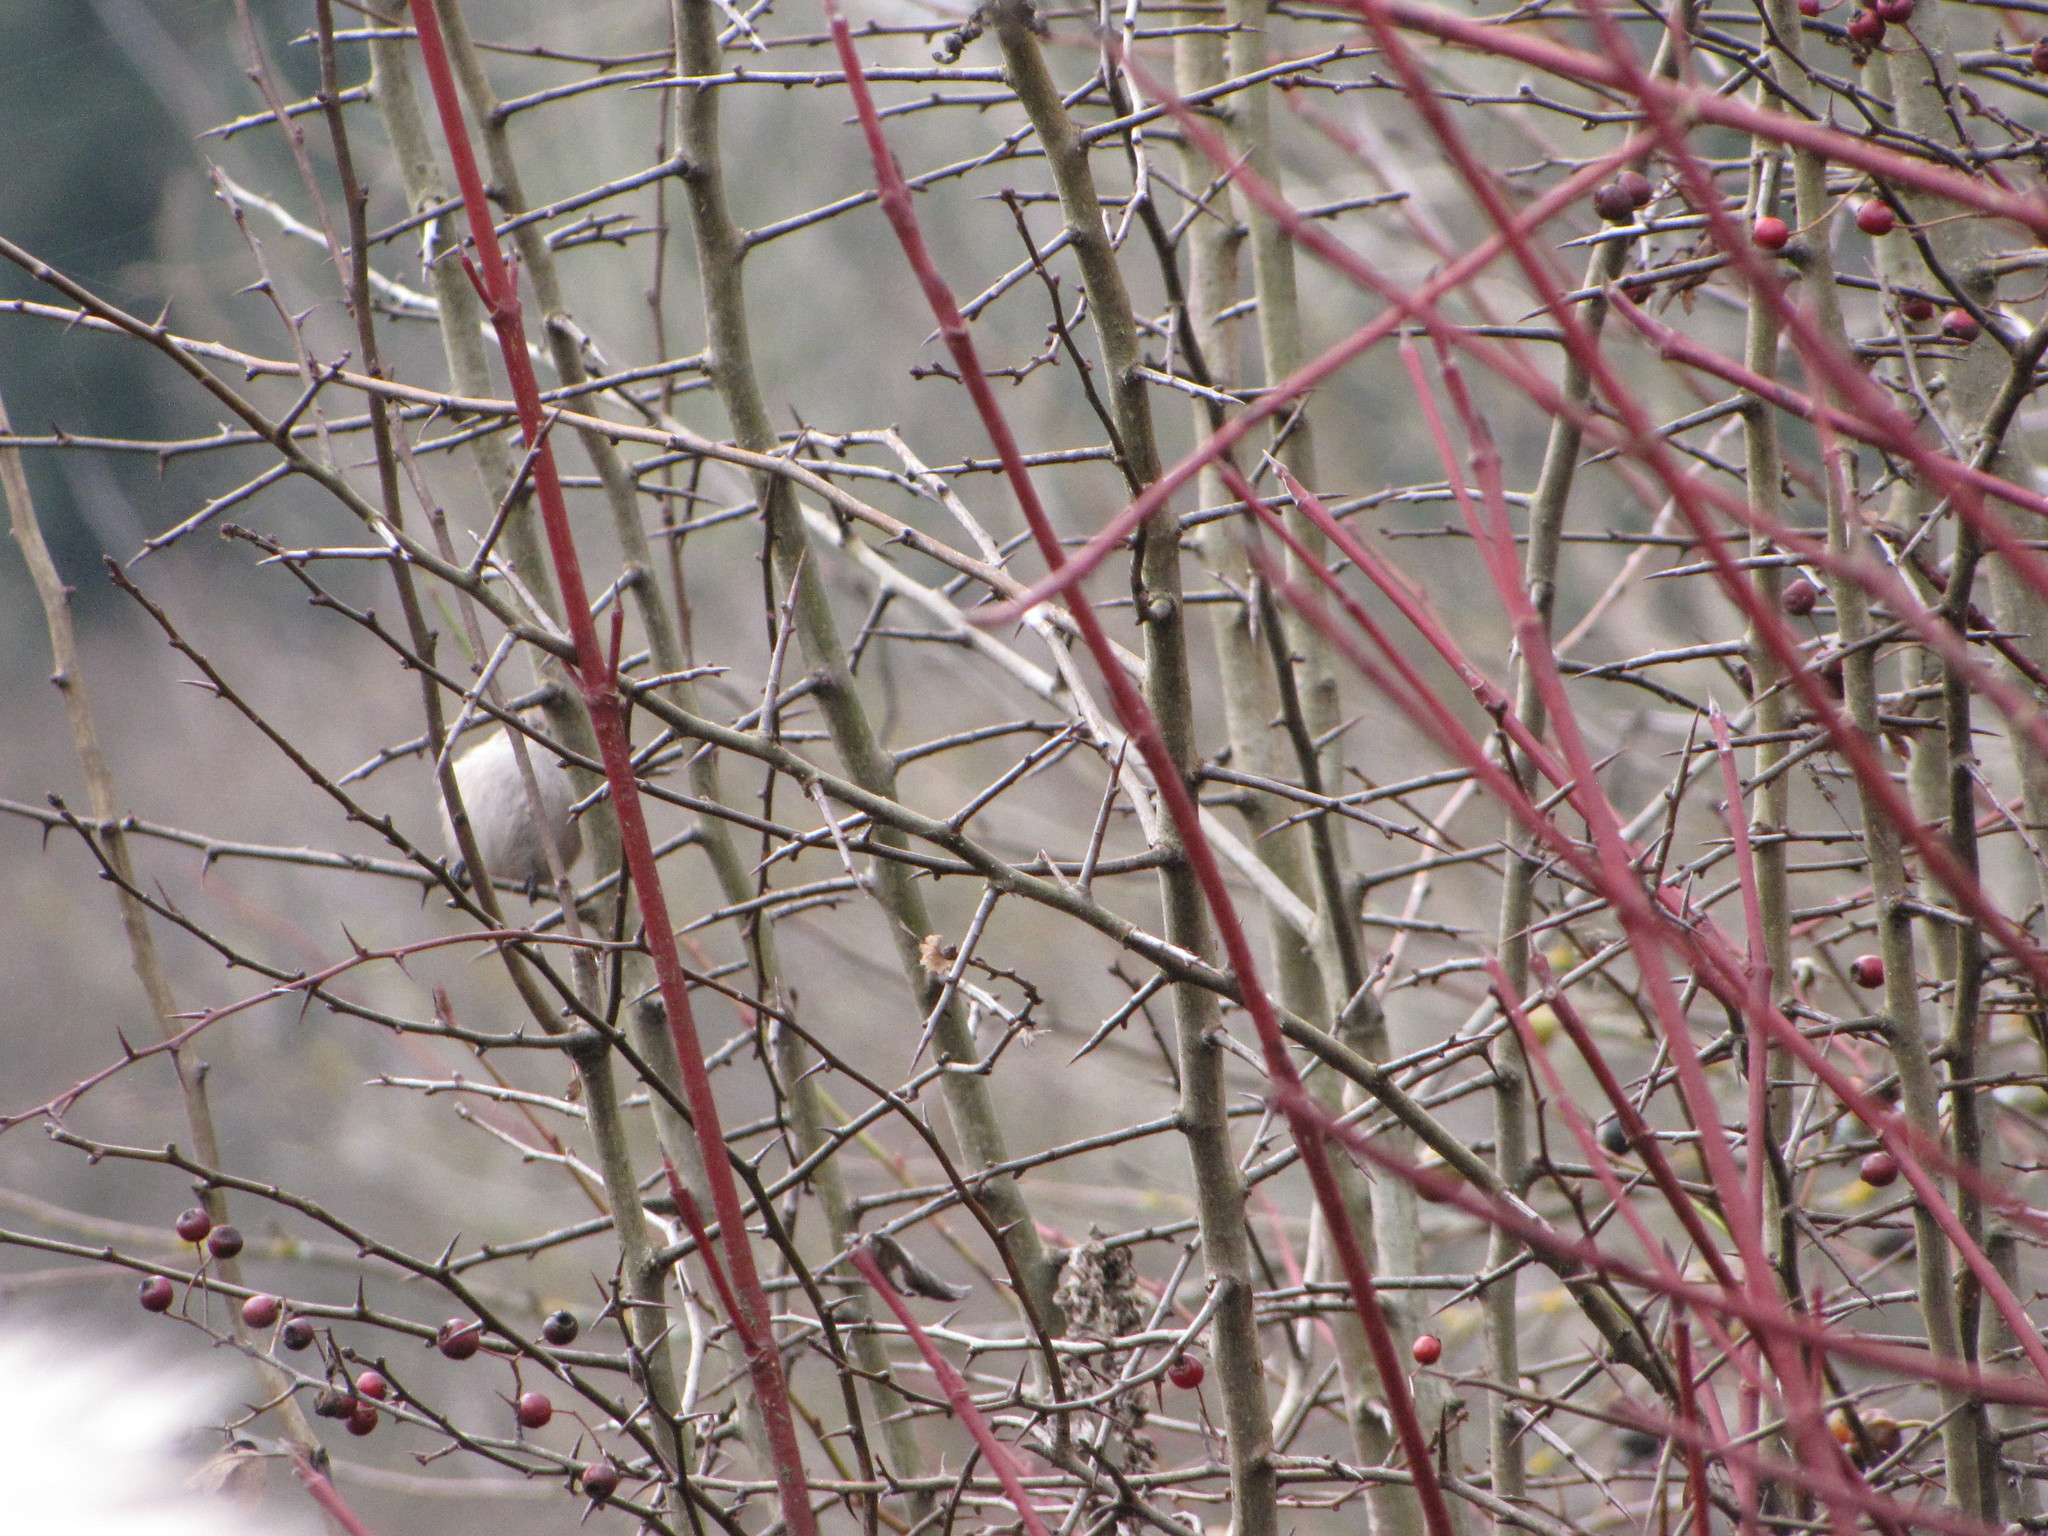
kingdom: Animalia
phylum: Chordata
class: Aves
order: Passeriformes
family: Aegithalidae
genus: Psaltriparus
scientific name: Psaltriparus minimus
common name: American bushtit
